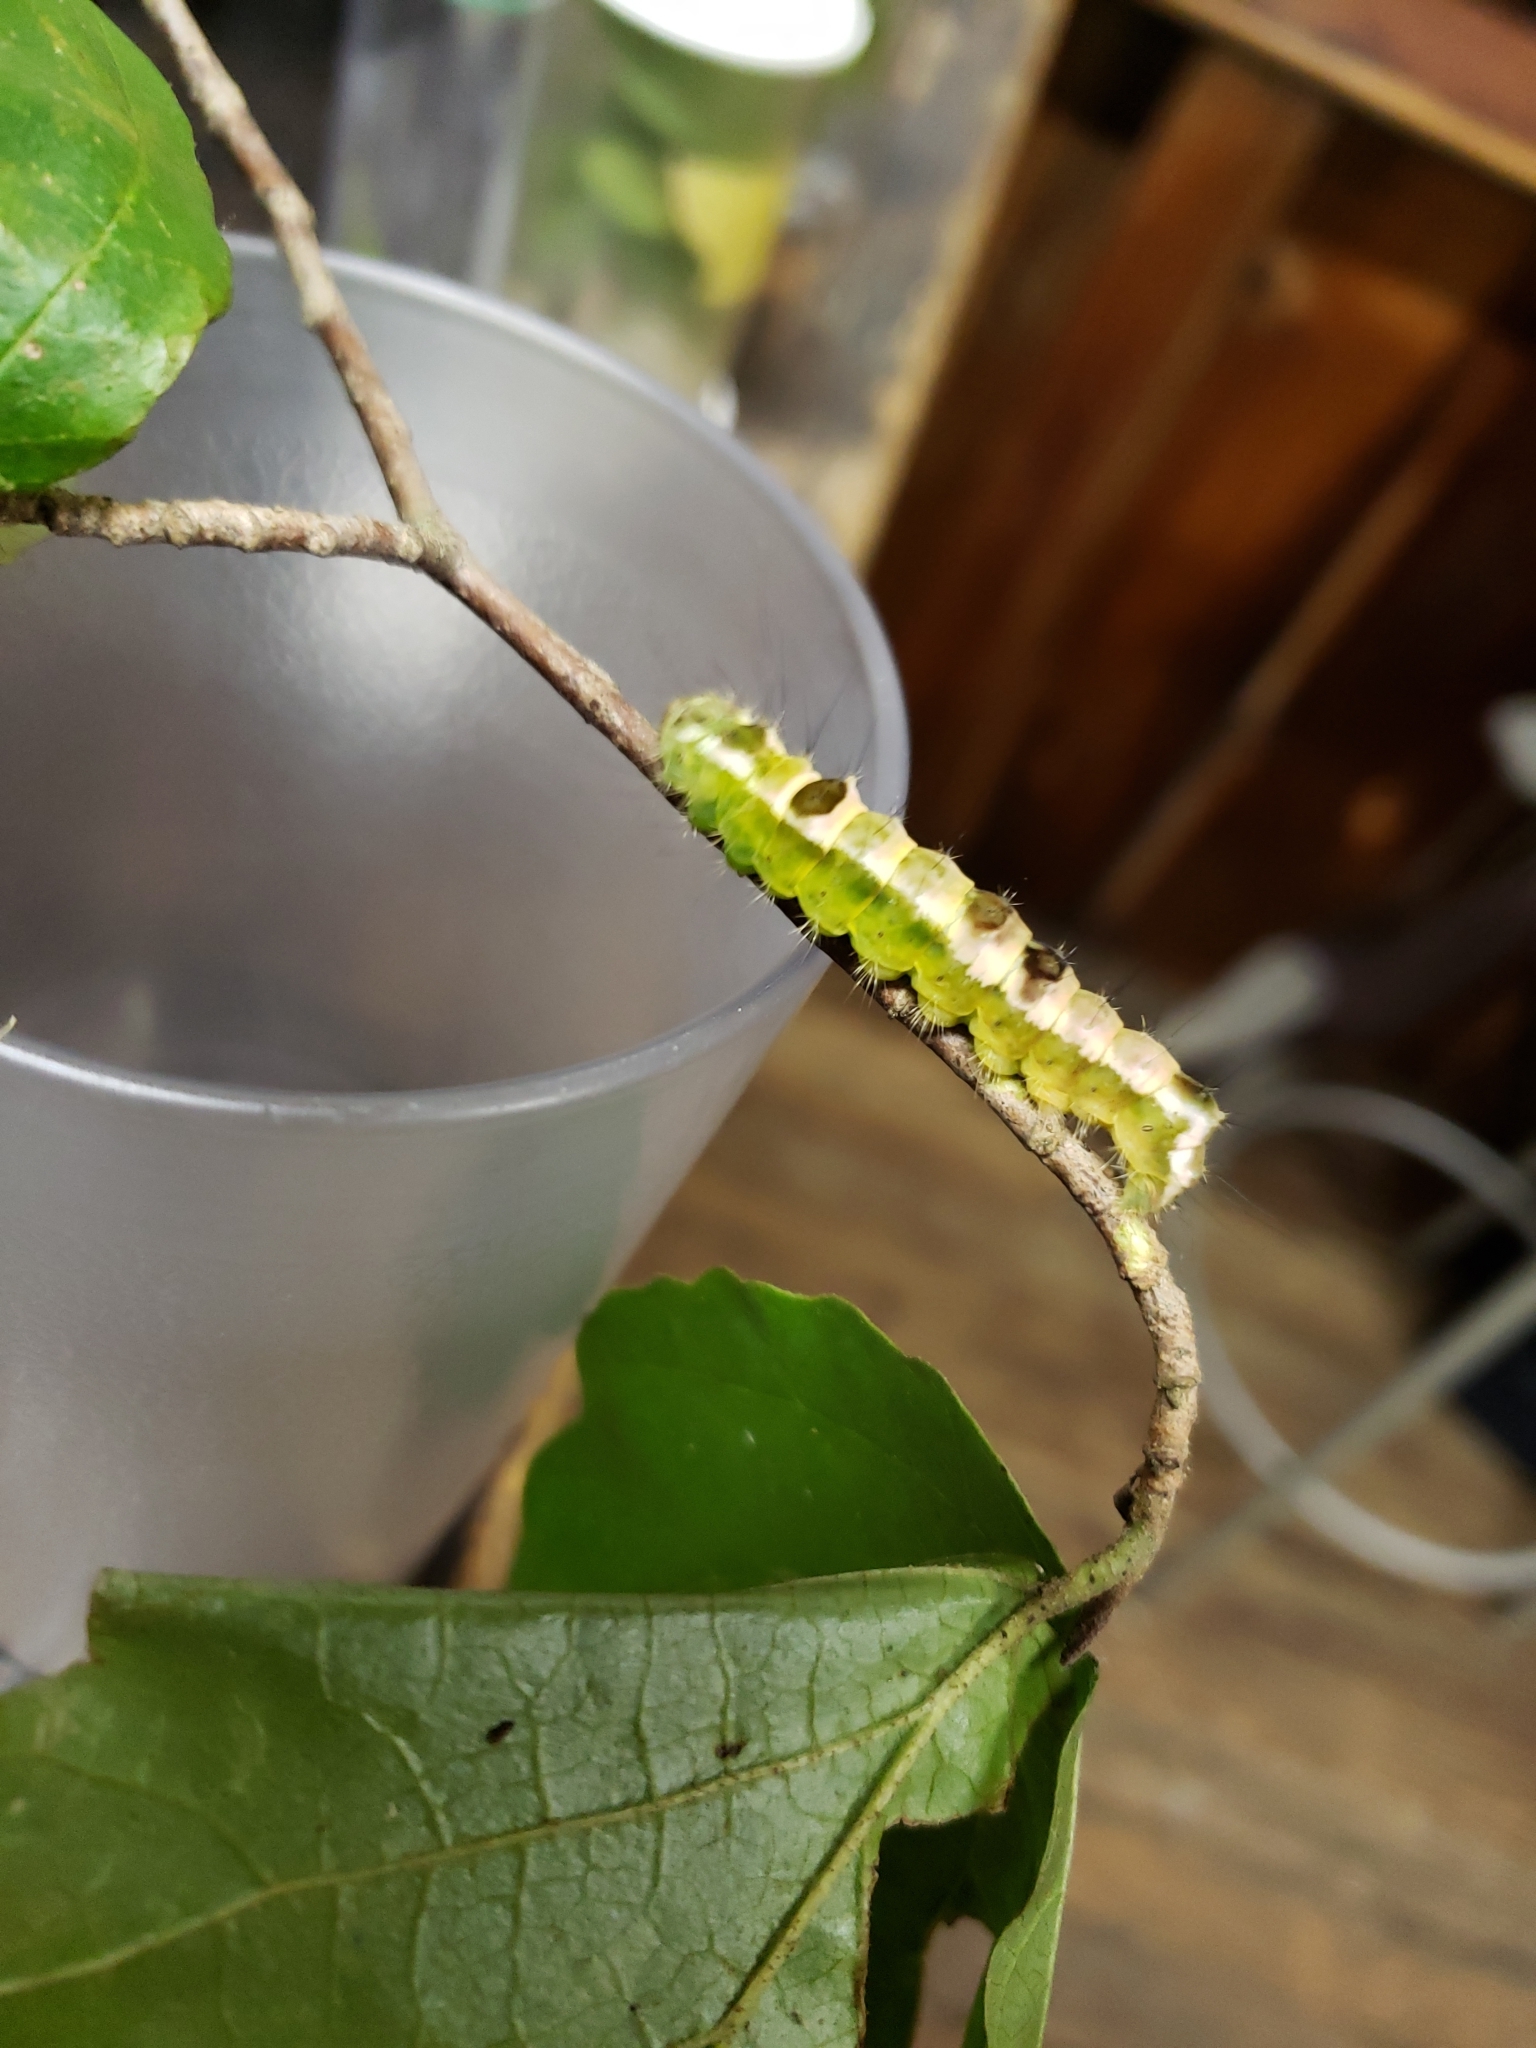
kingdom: Animalia
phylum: Arthropoda
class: Insecta
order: Lepidoptera
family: Noctuidae
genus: Acronicta
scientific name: Acronicta hamamelis
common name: Witch hazel dagger
